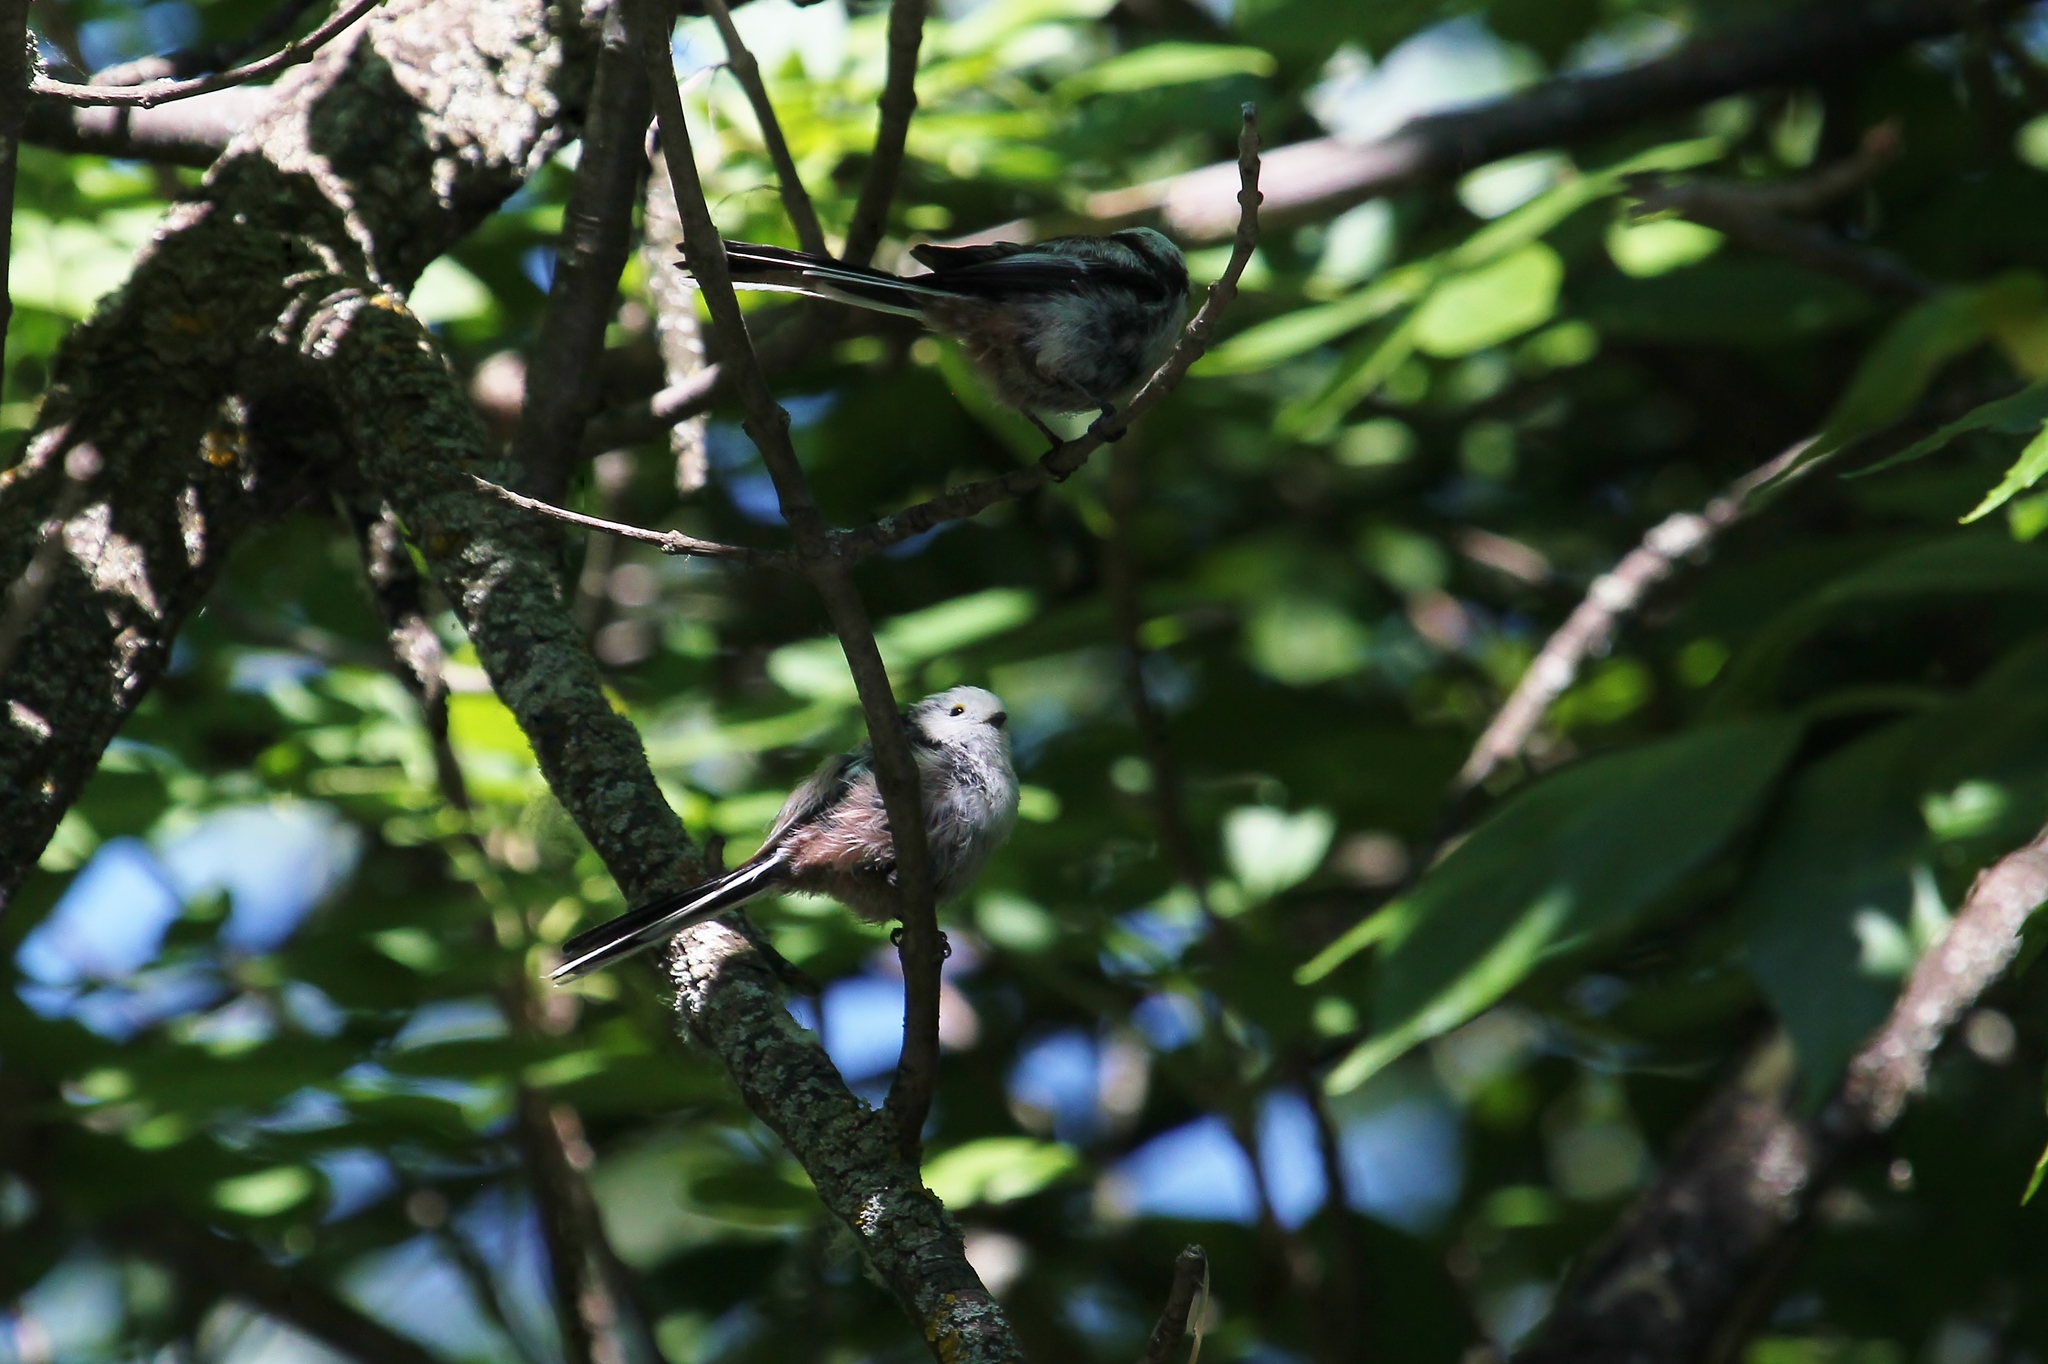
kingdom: Animalia
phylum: Chordata
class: Aves
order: Passeriformes
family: Aegithalidae
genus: Aegithalos
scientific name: Aegithalos caudatus
